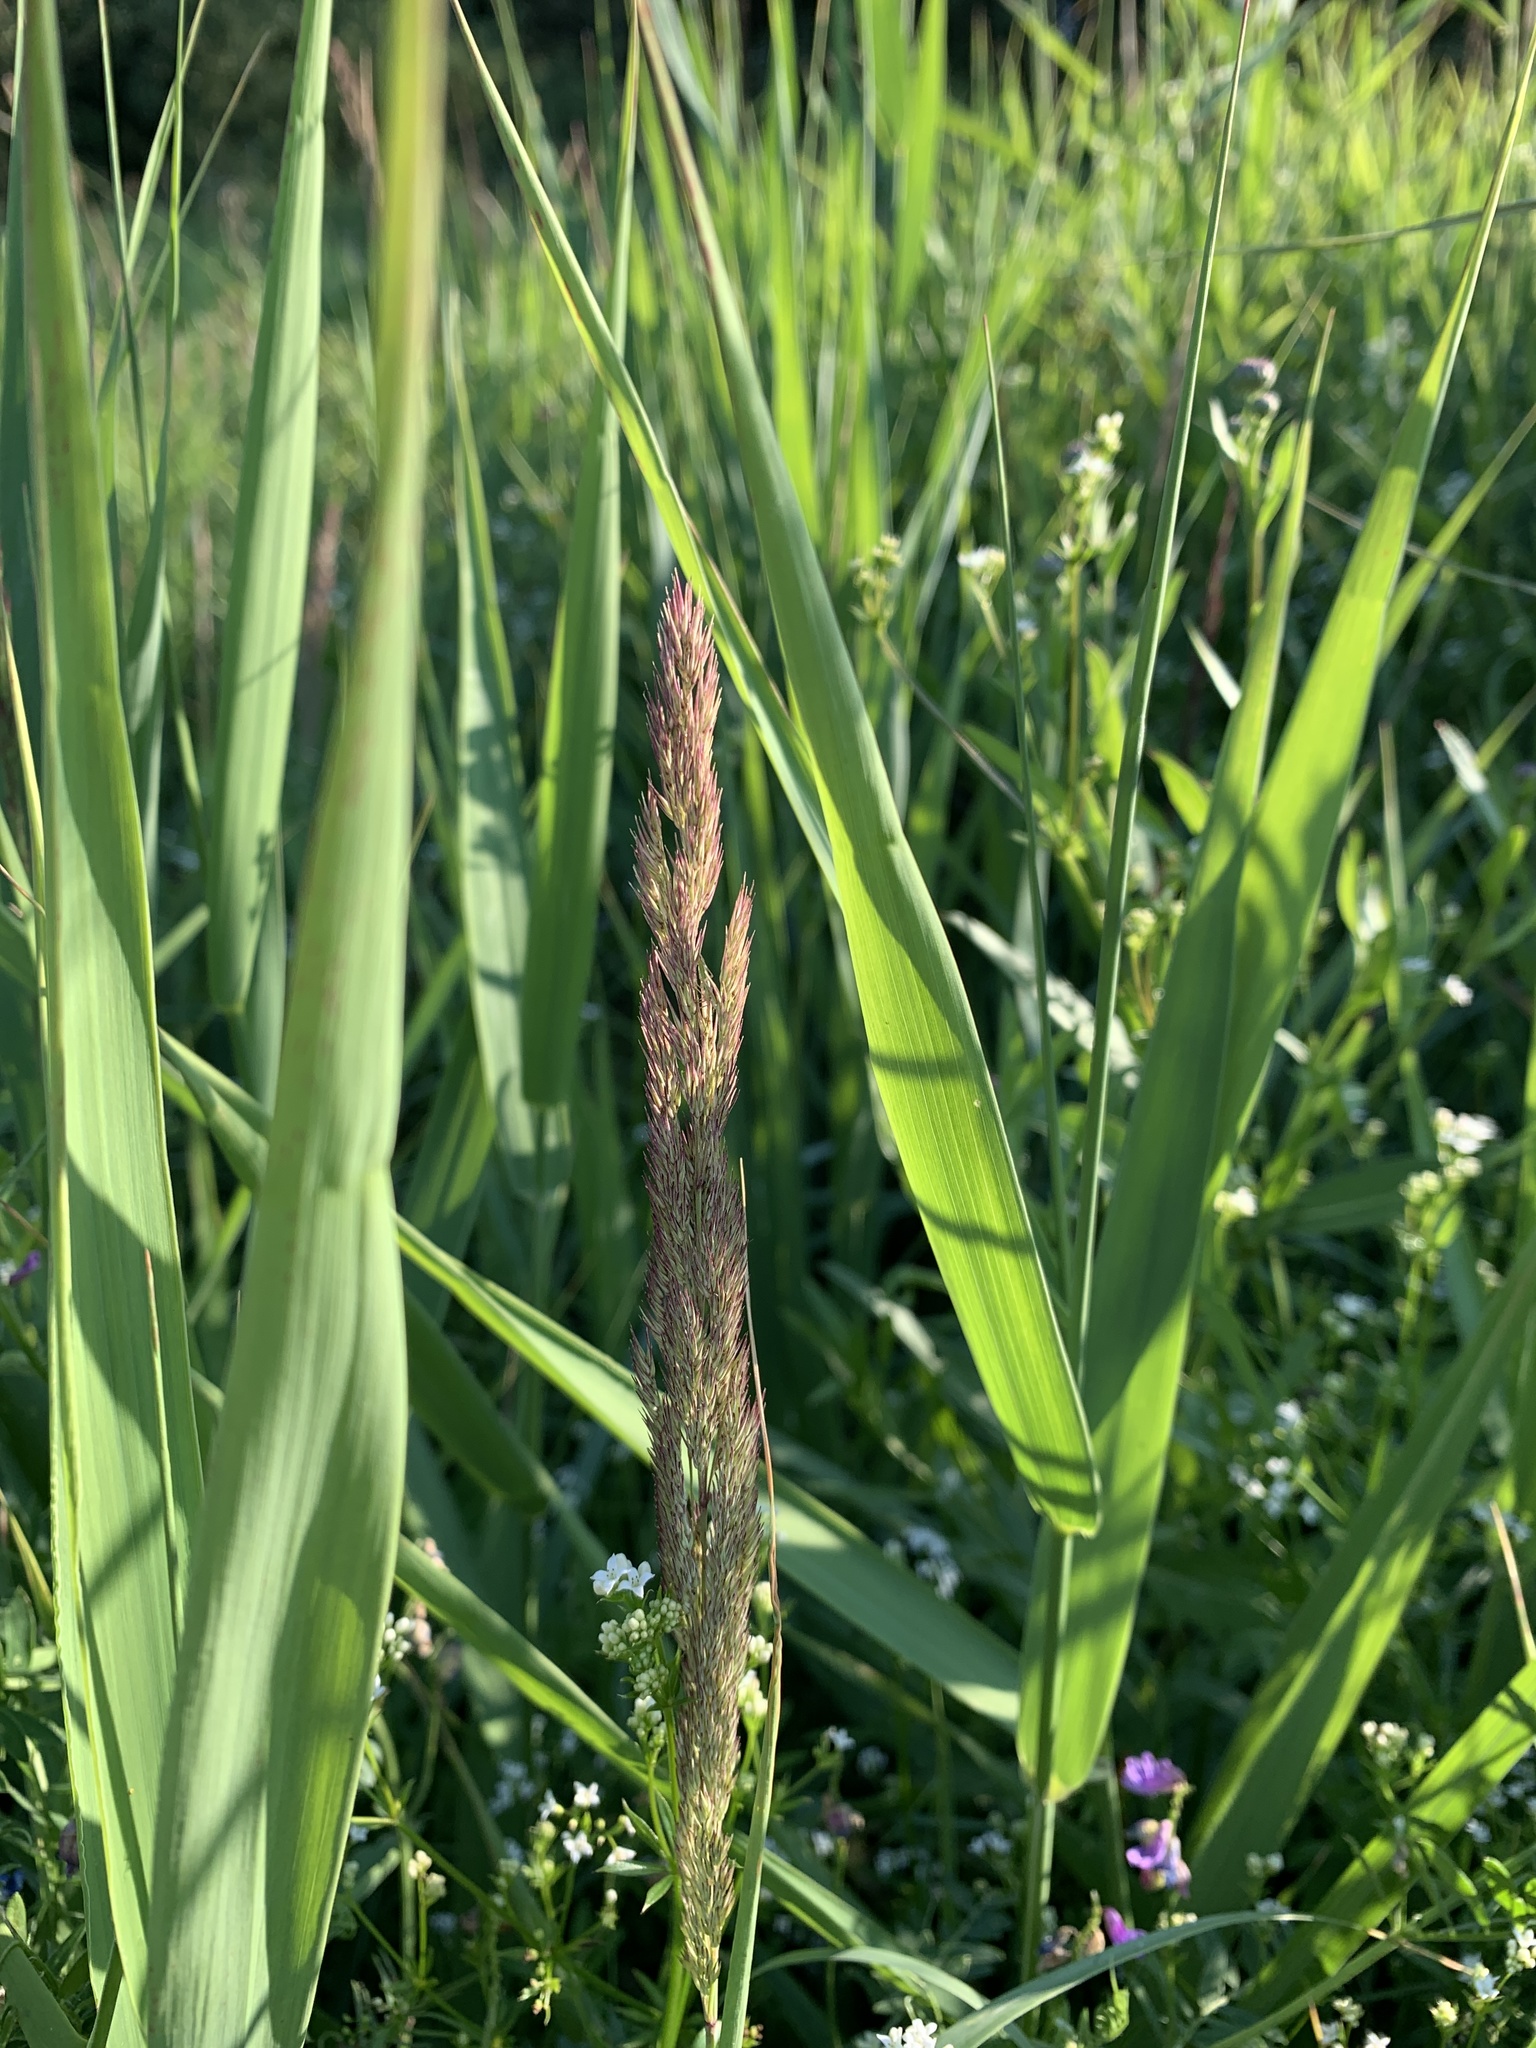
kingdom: Plantae
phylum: Tracheophyta
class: Liliopsida
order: Poales
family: Poaceae
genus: Calamagrostis
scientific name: Calamagrostis epigejos
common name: Wood small-reed
